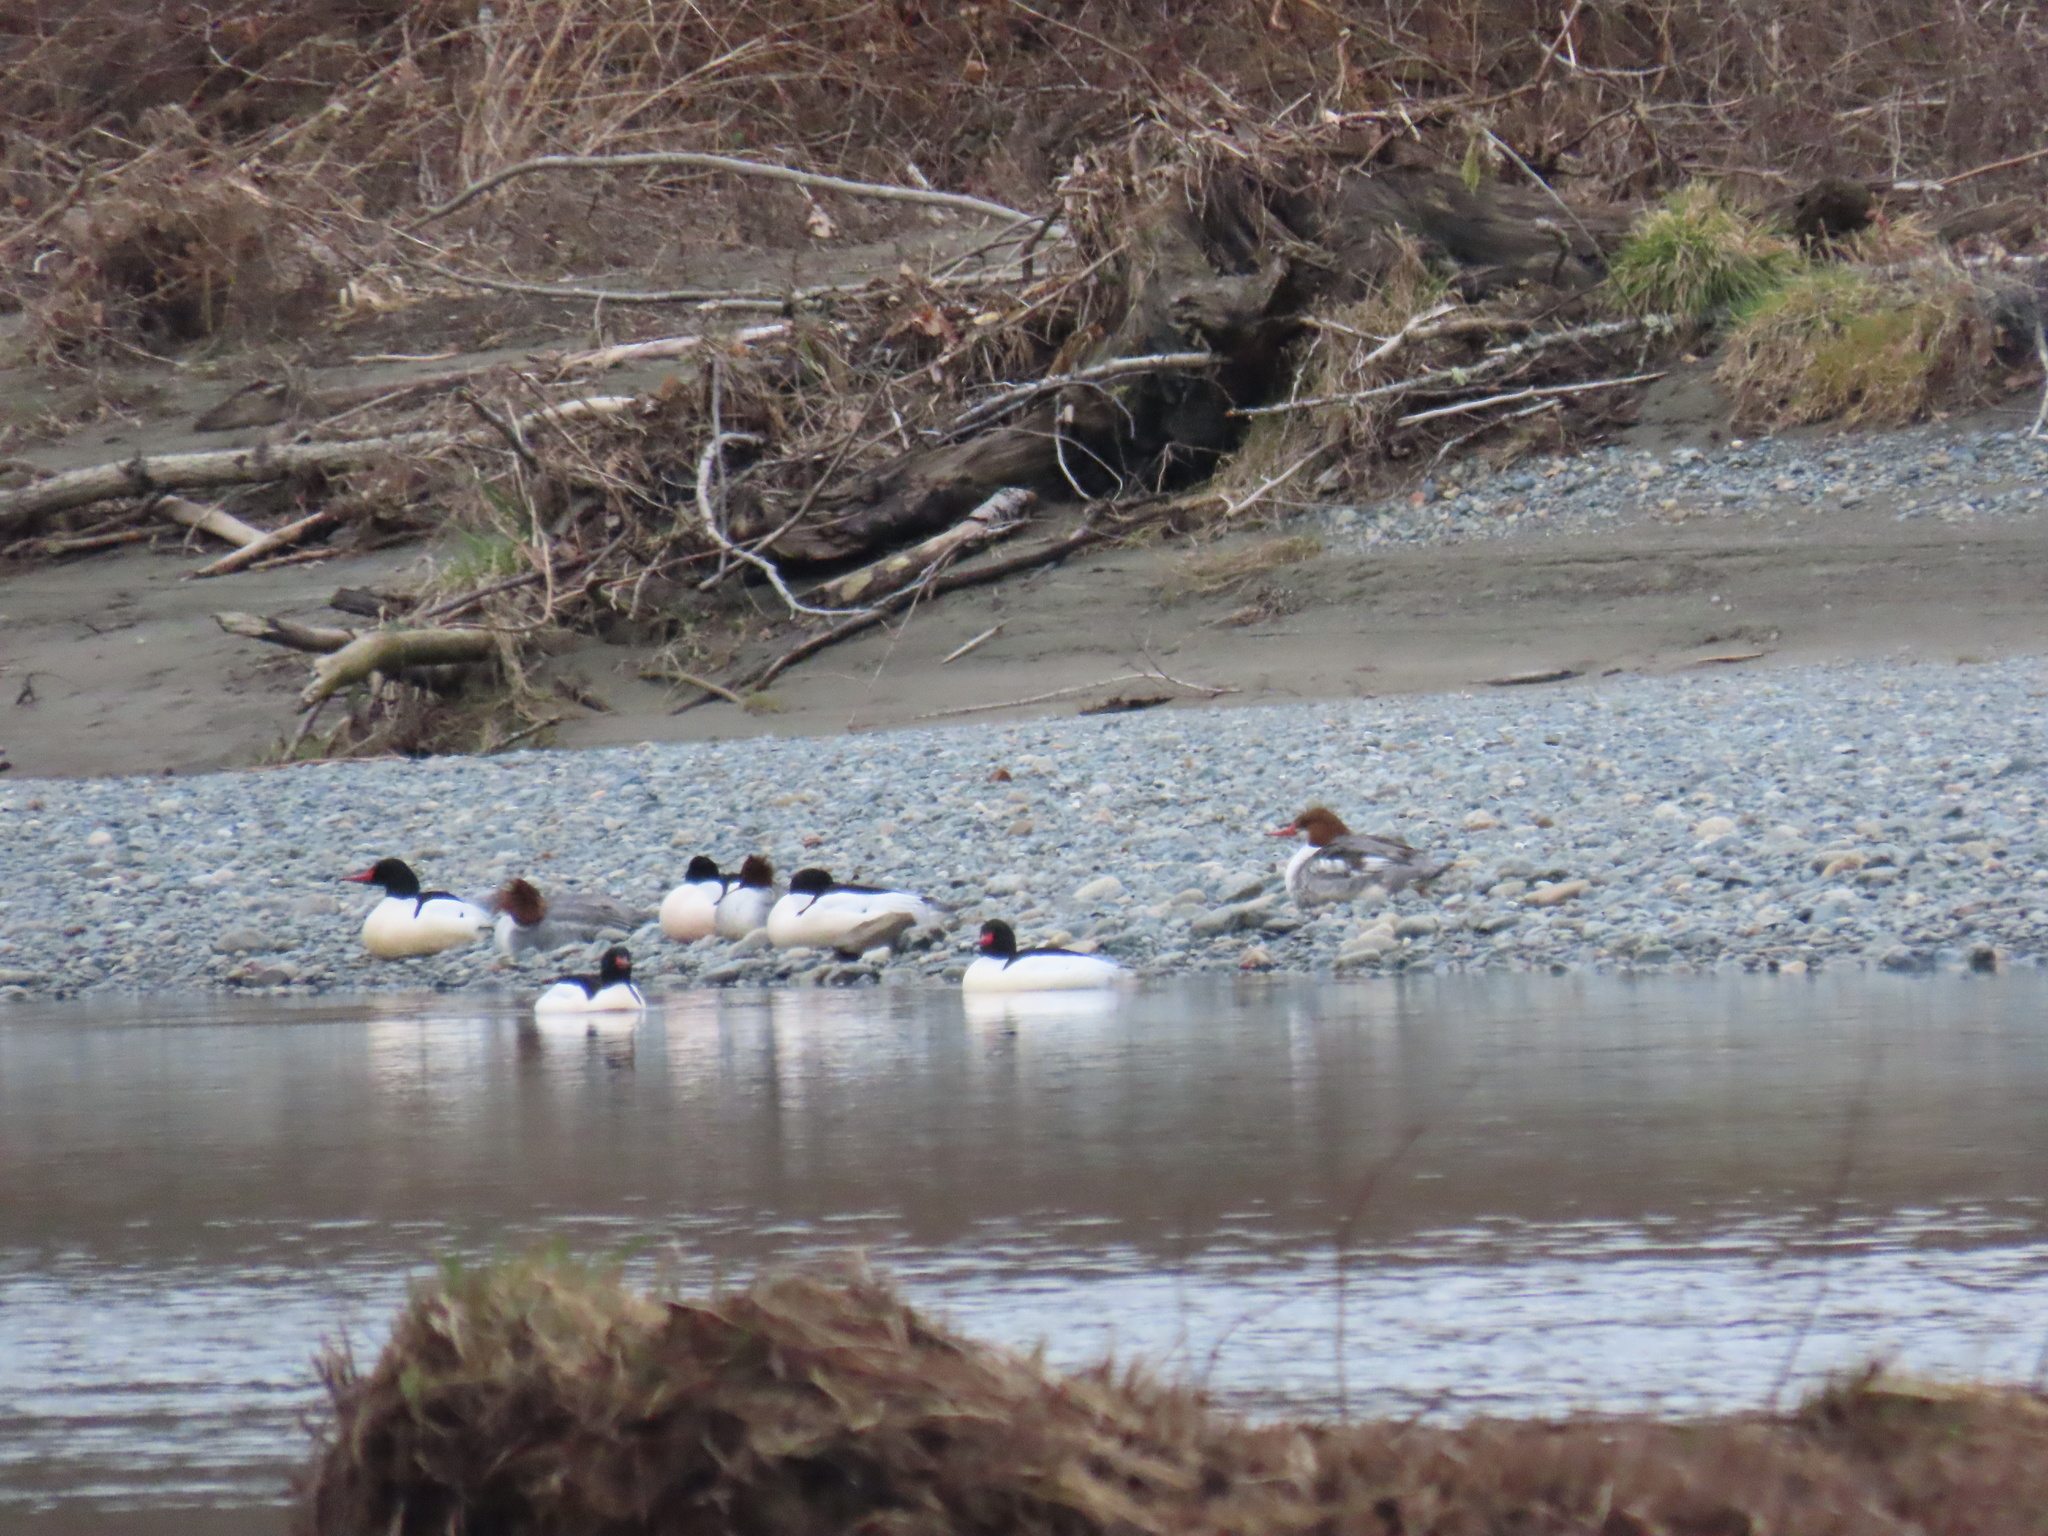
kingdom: Animalia
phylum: Chordata
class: Aves
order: Anseriformes
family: Anatidae
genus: Mergus
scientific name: Mergus merganser
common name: Common merganser
